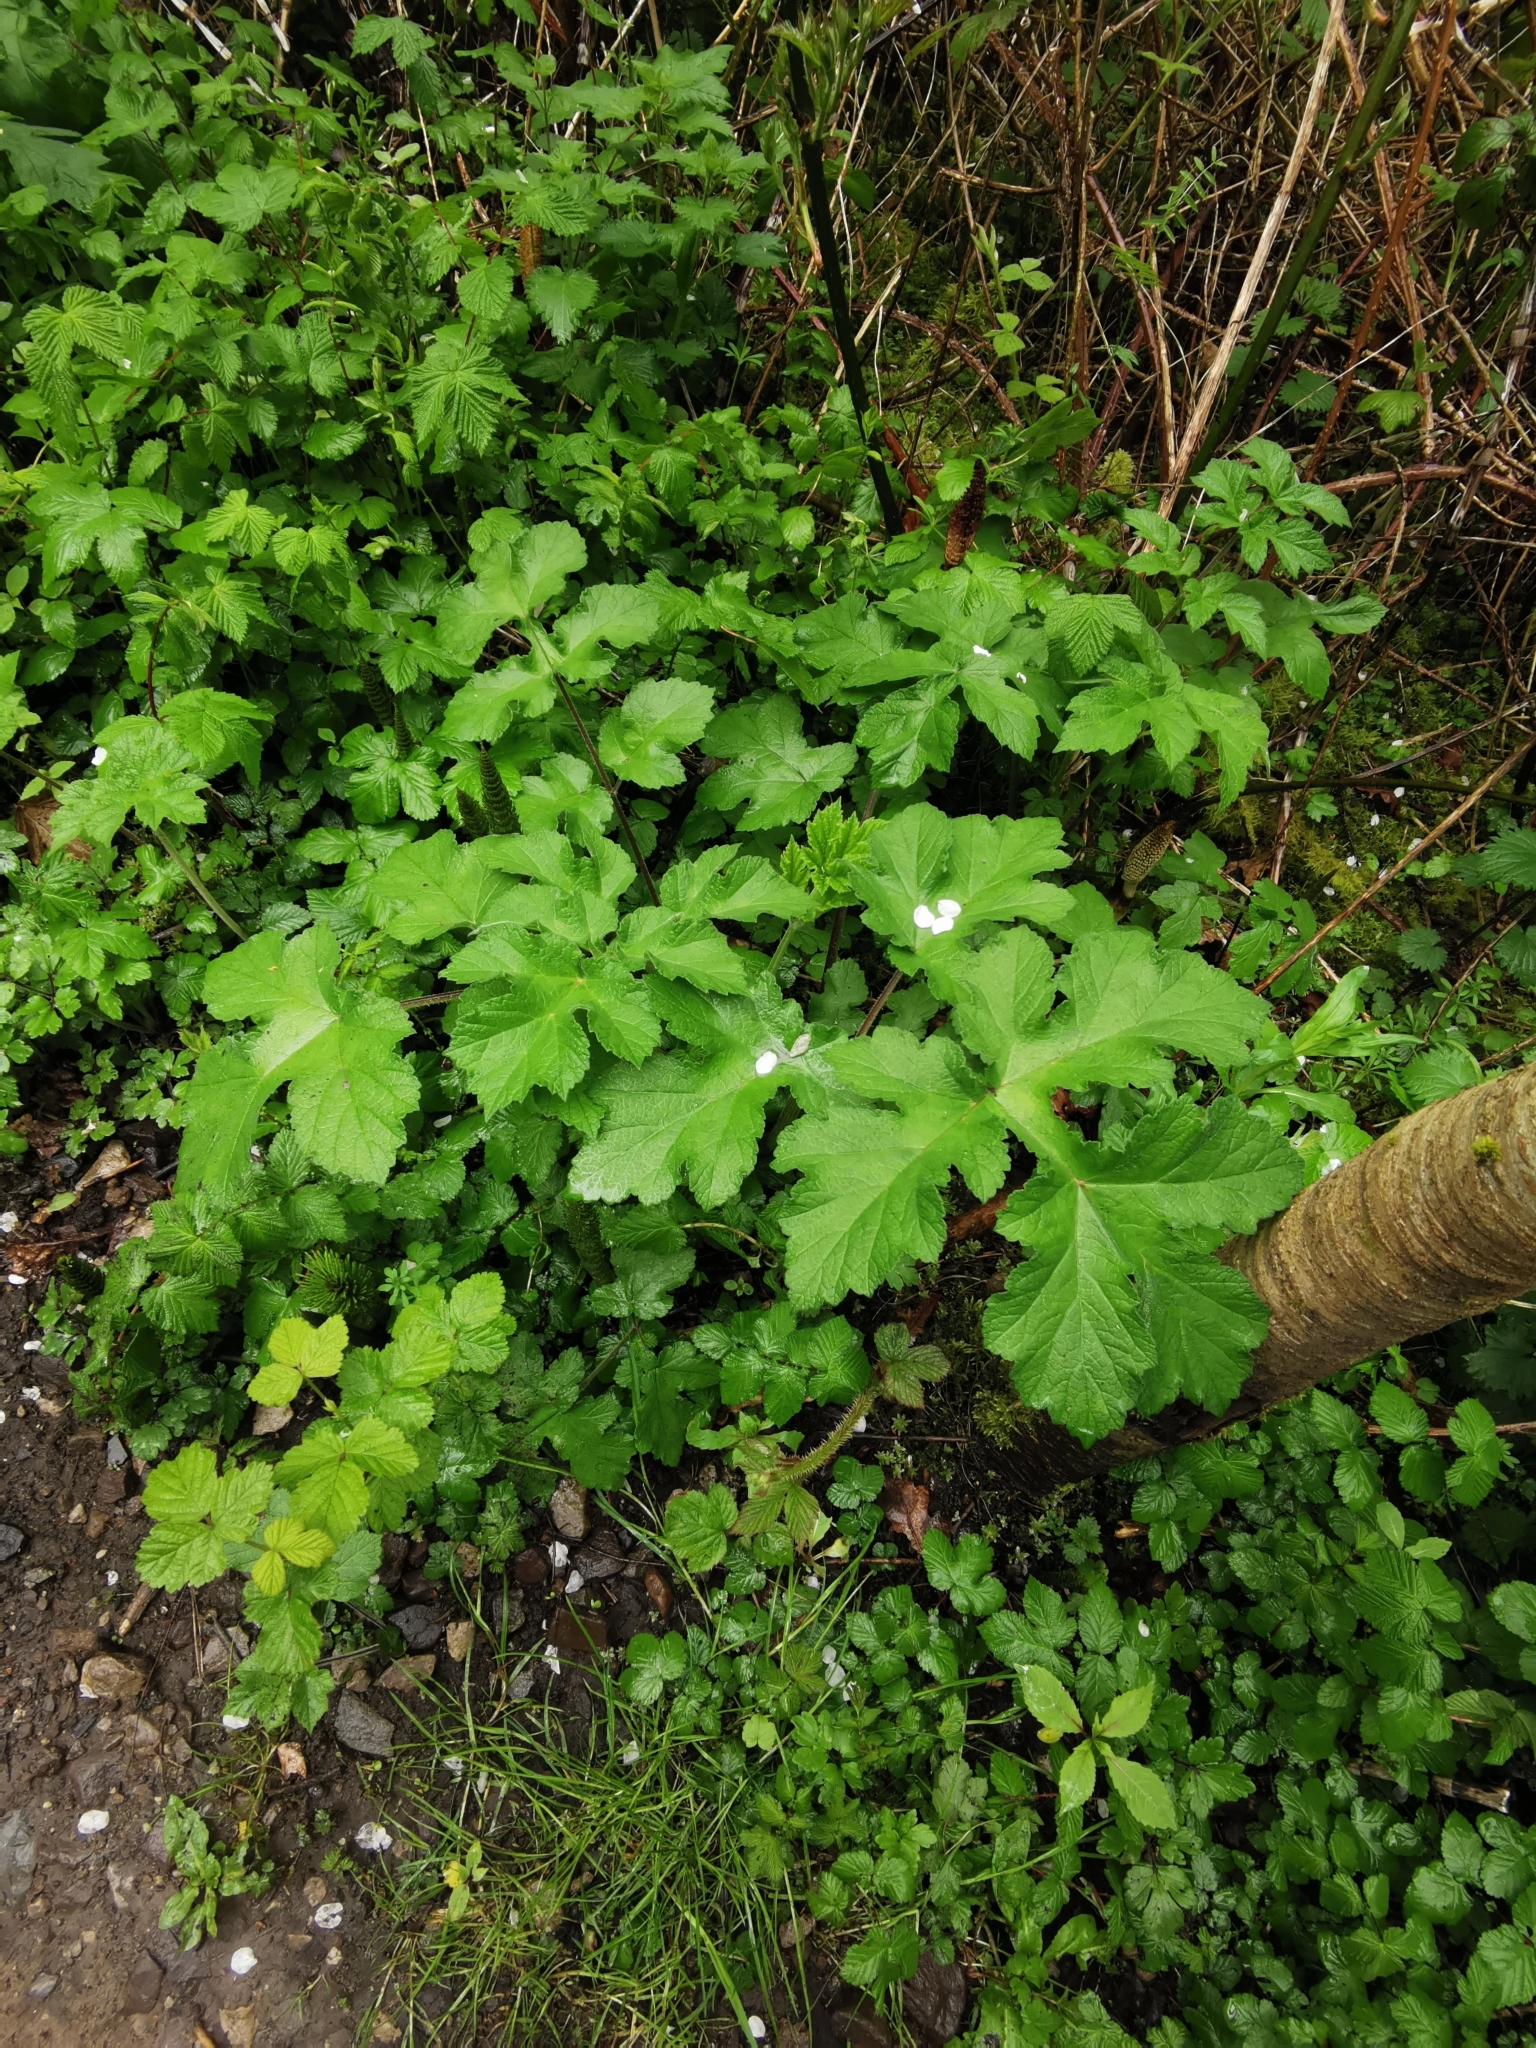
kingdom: Plantae
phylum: Tracheophyta
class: Magnoliopsida
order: Apiales
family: Apiaceae
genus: Heracleum
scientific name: Heracleum sphondylium
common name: Hogweed
